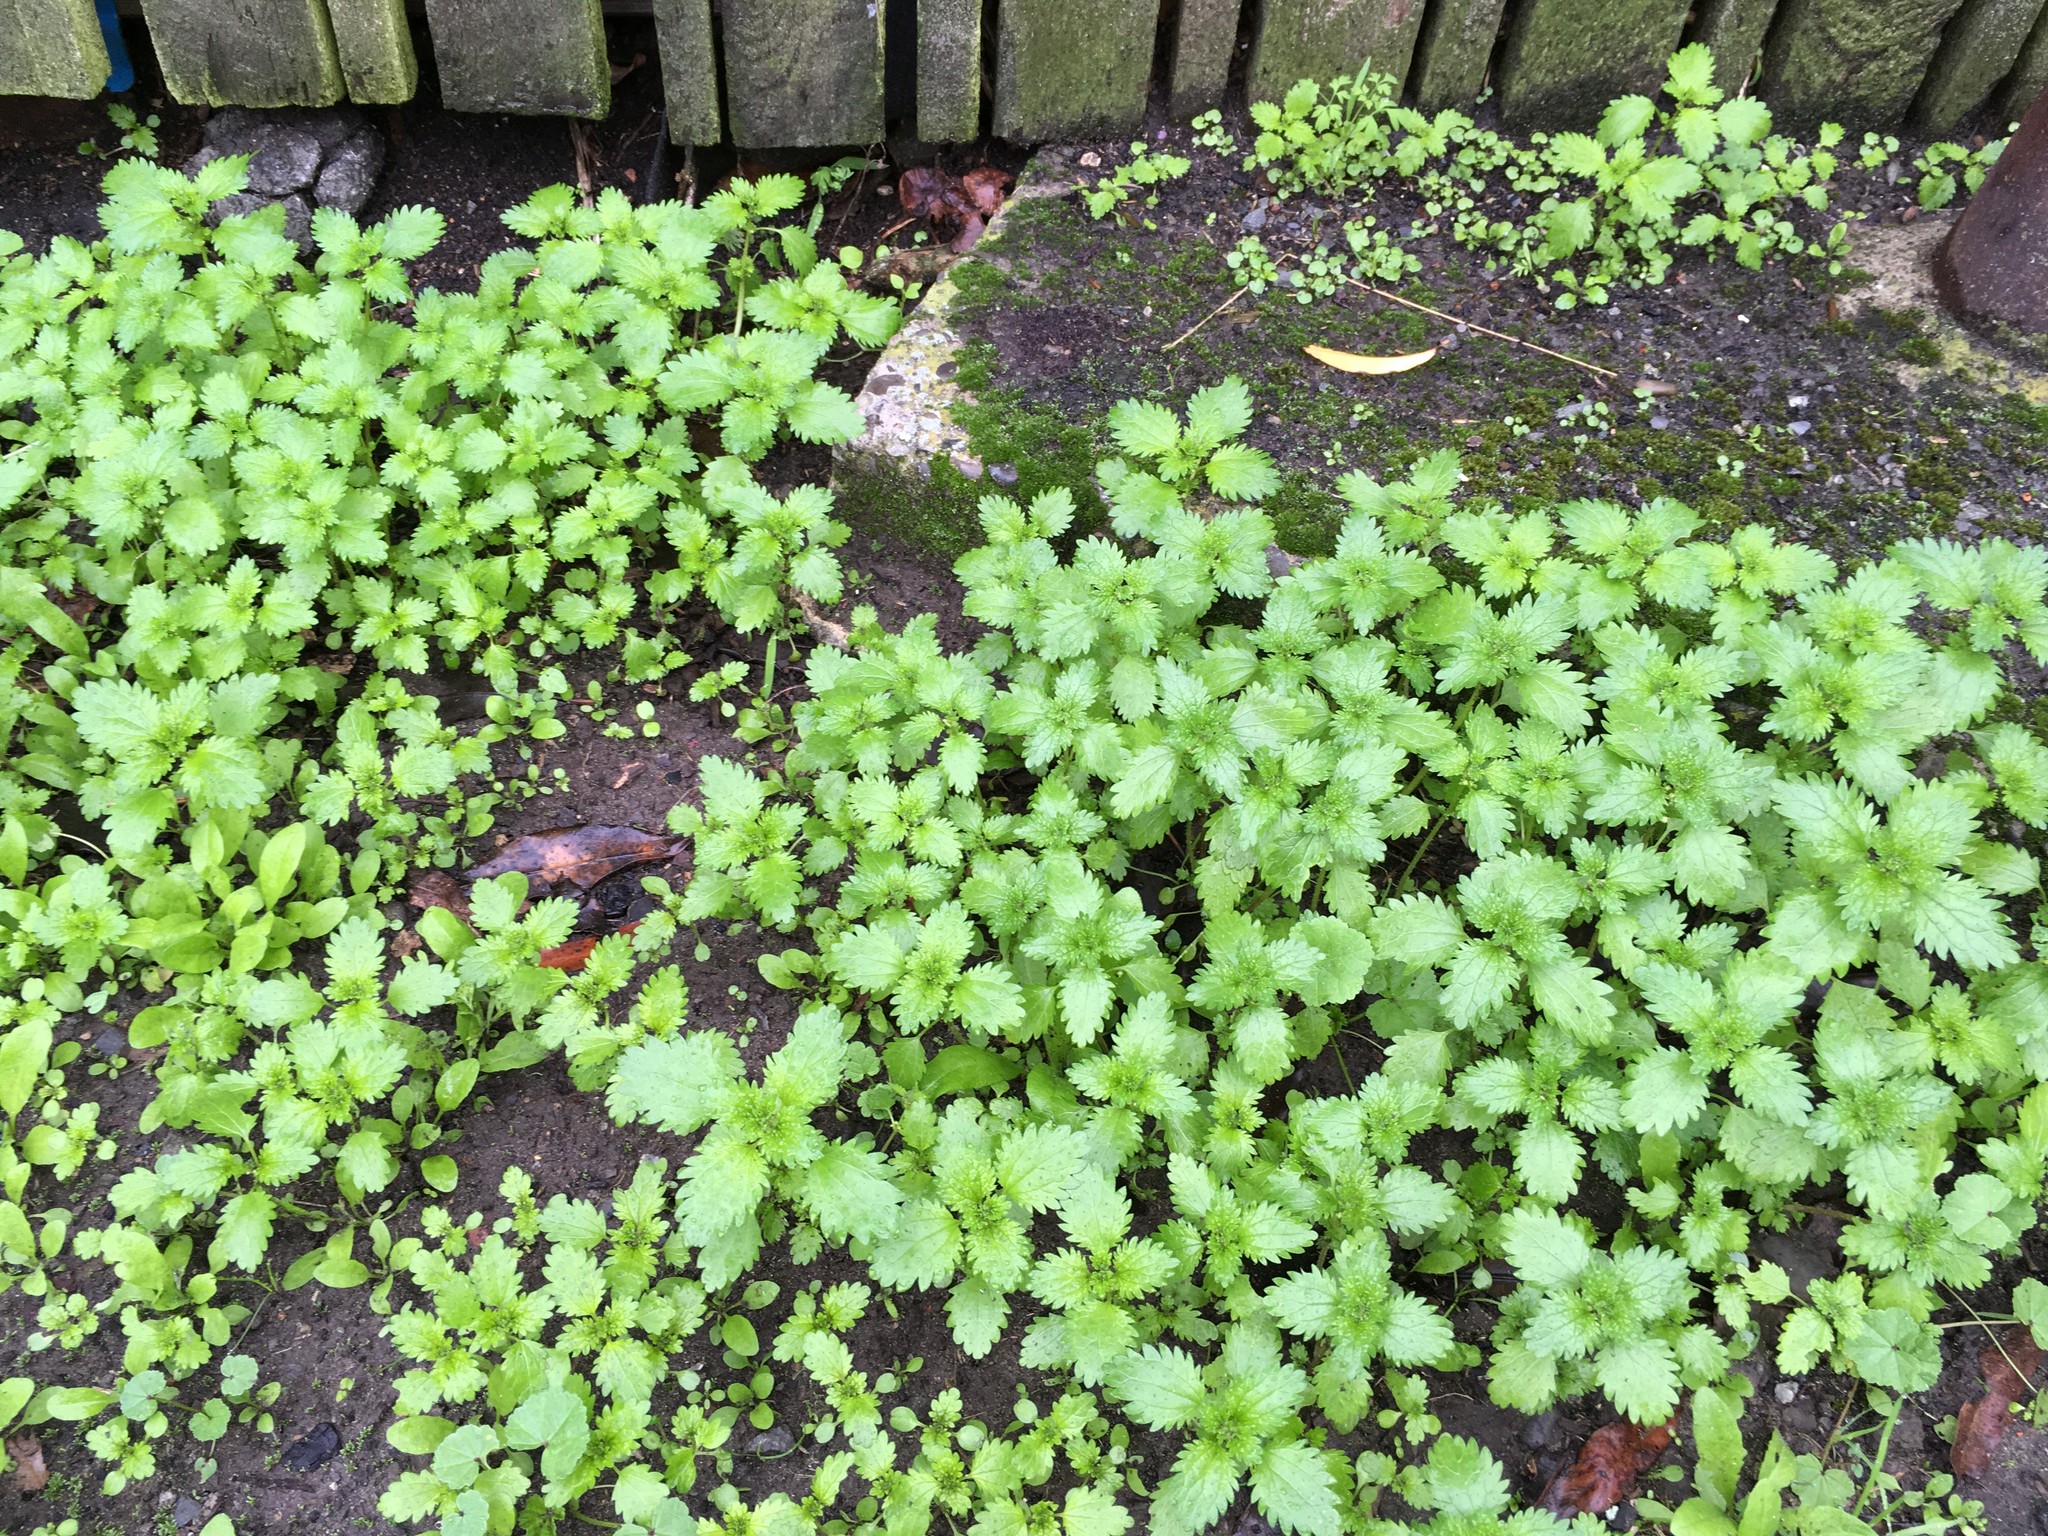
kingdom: Plantae
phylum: Tracheophyta
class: Magnoliopsida
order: Rosales
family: Urticaceae
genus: Urtica
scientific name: Urtica urens
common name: Dwarf nettle
